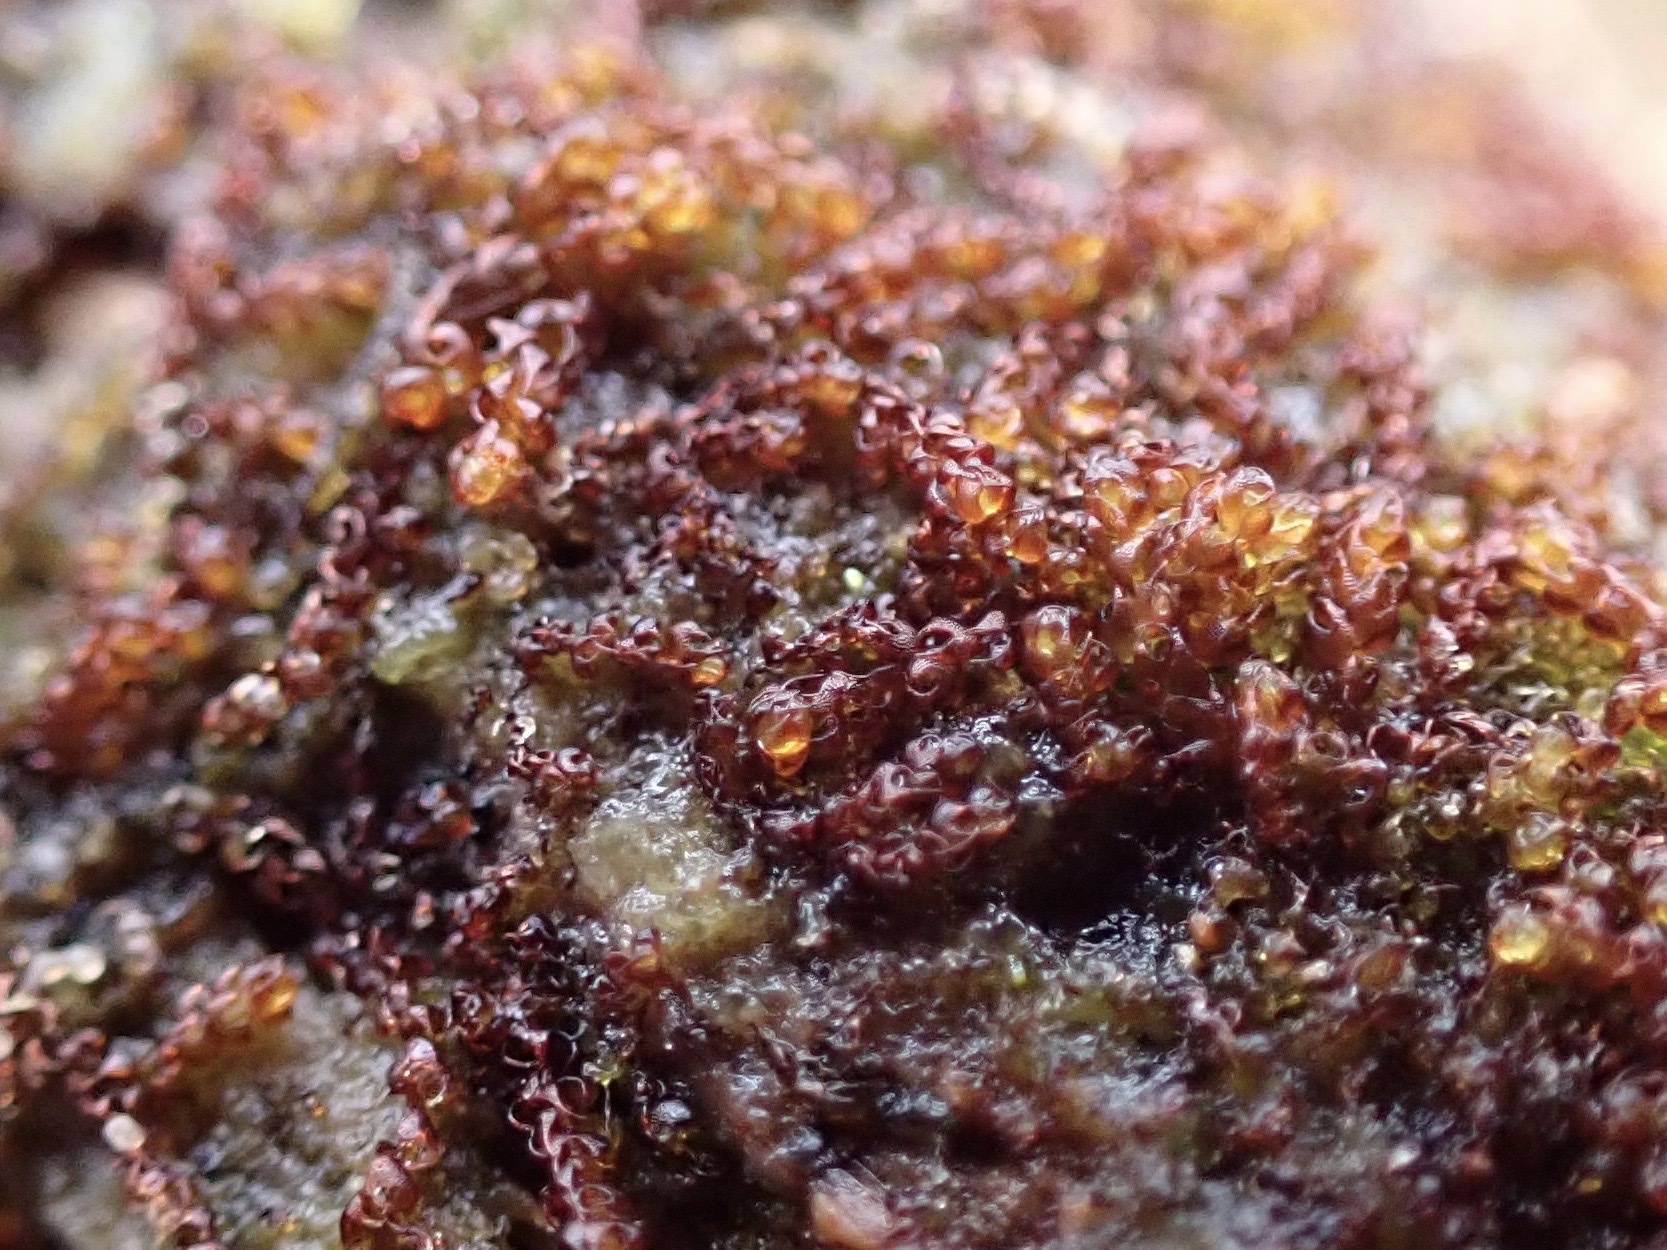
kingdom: Plantae
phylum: Marchantiophyta
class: Jungermanniopsida
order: Jungermanniales
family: Cephaloziaceae
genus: Nowellia
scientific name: Nowellia curvifolia
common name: Wood rustwort
